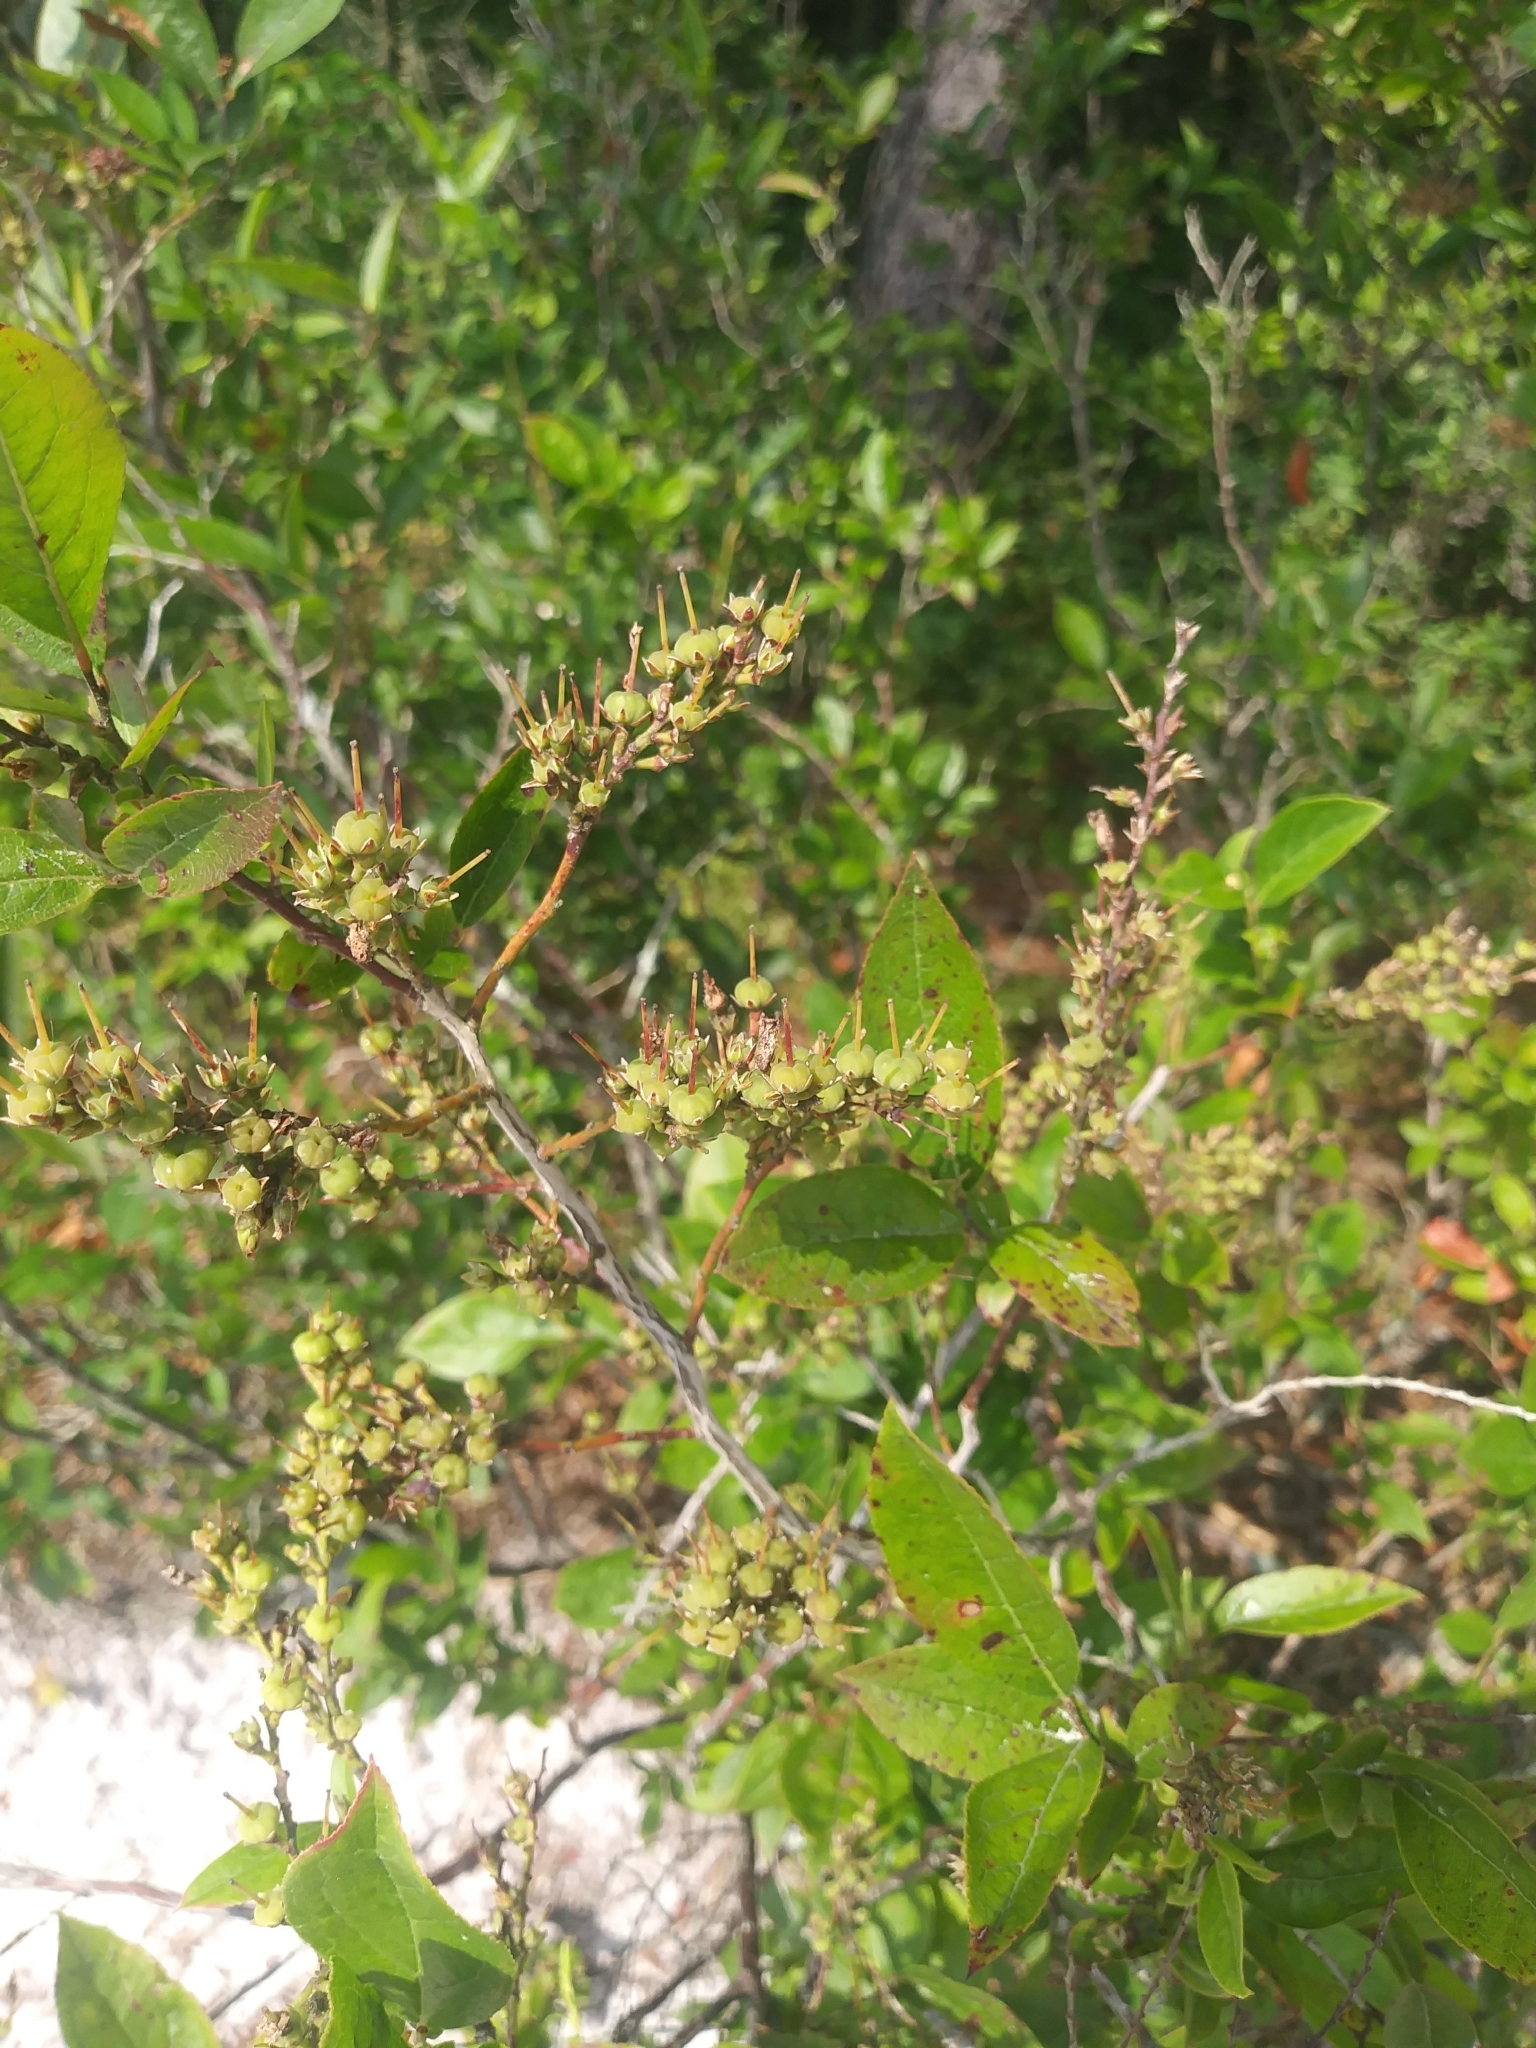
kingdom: Plantae
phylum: Tracheophyta
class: Magnoliopsida
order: Ericales
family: Ericaceae
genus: Eubotrys
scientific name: Eubotrys racemosa
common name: Fetterbush
